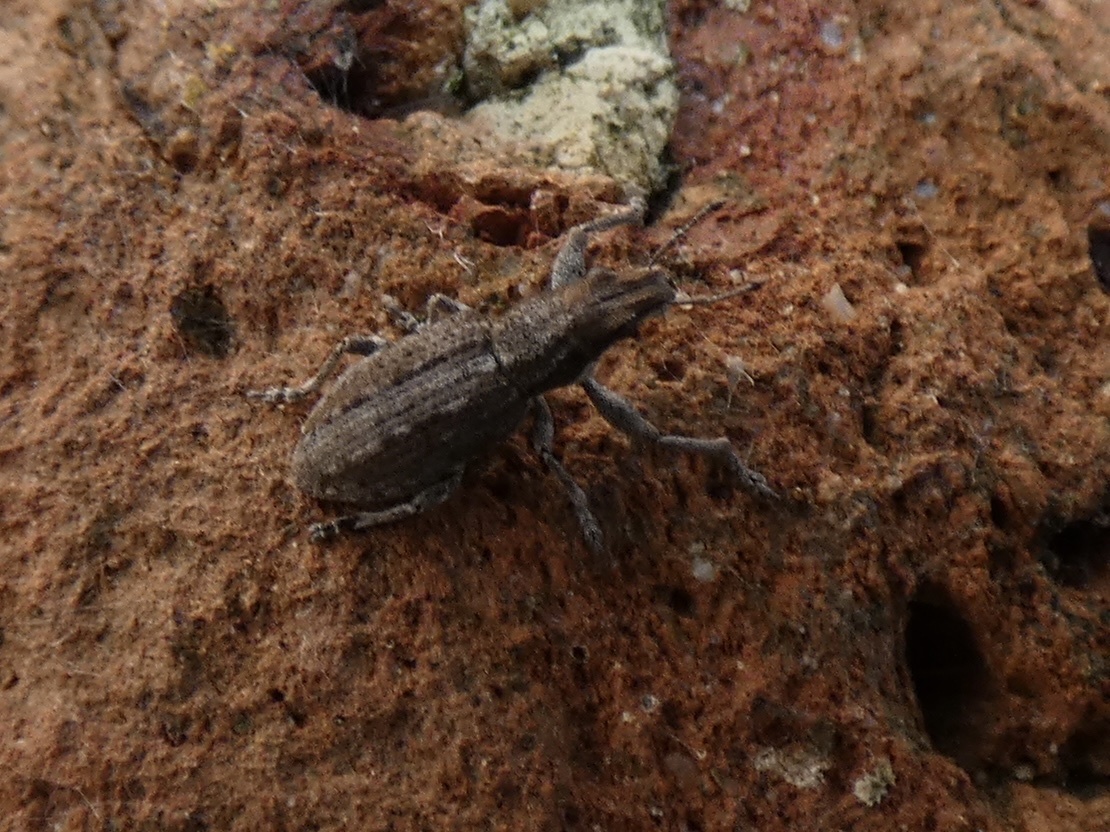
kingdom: Animalia
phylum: Arthropoda
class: Insecta
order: Coleoptera
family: Curculionidae
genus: Charagmus
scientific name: Charagmus griseus
